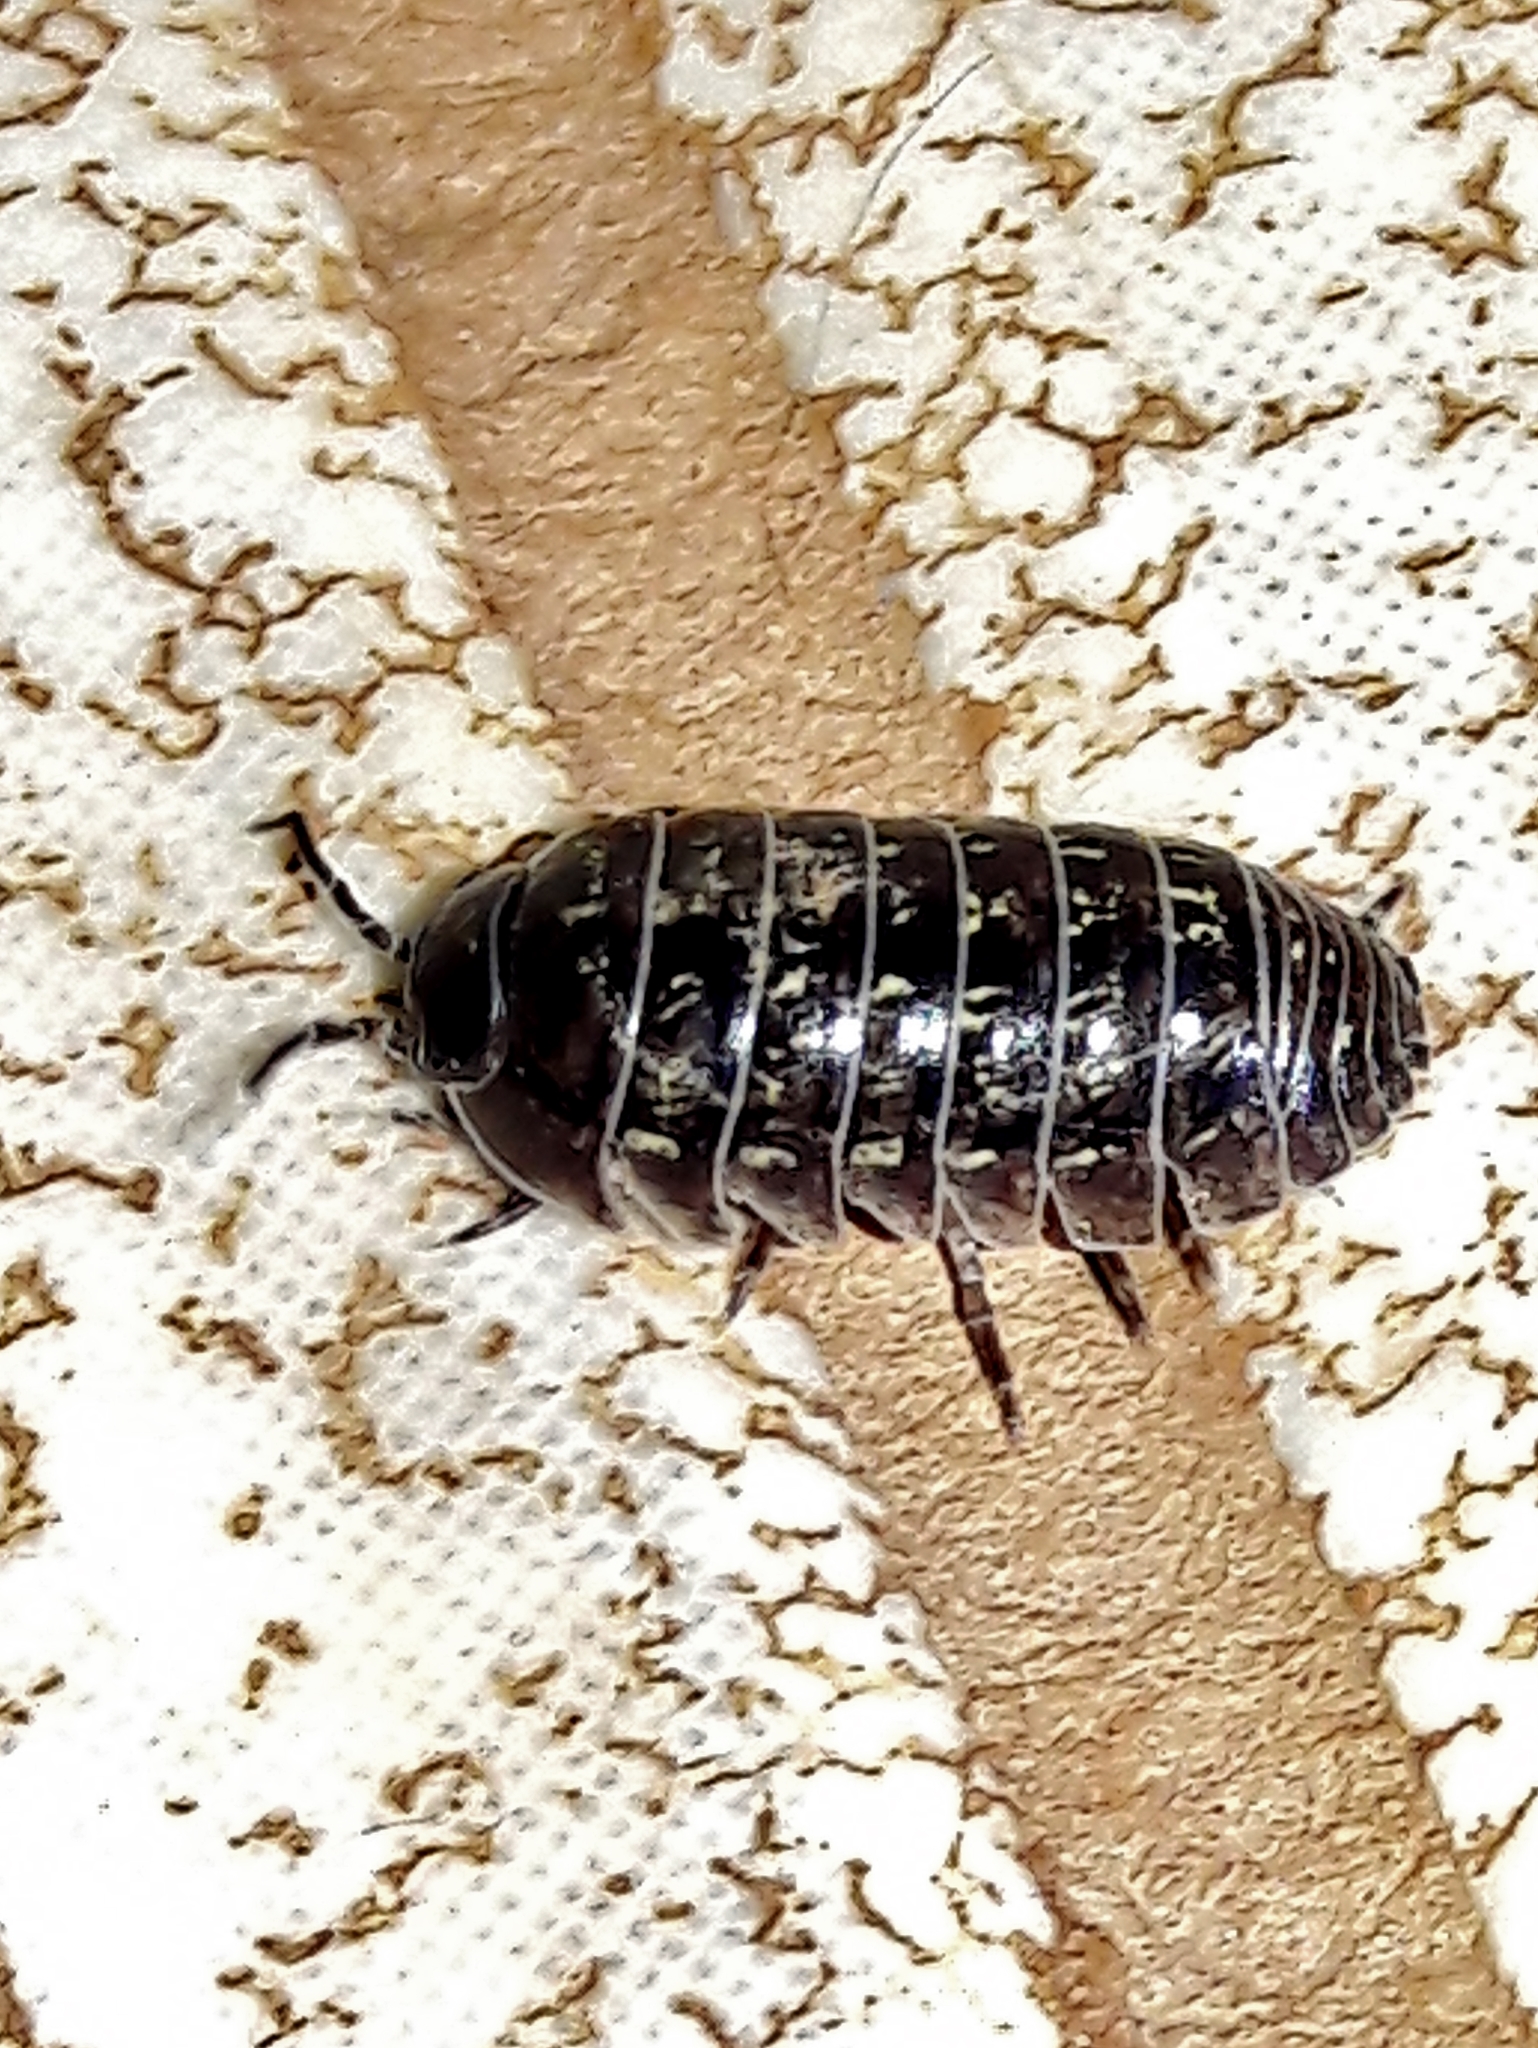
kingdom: Animalia
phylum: Arthropoda
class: Malacostraca
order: Isopoda
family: Armadillidiidae
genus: Armadillidium
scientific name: Armadillidium vulgare
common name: Common pill woodlouse
